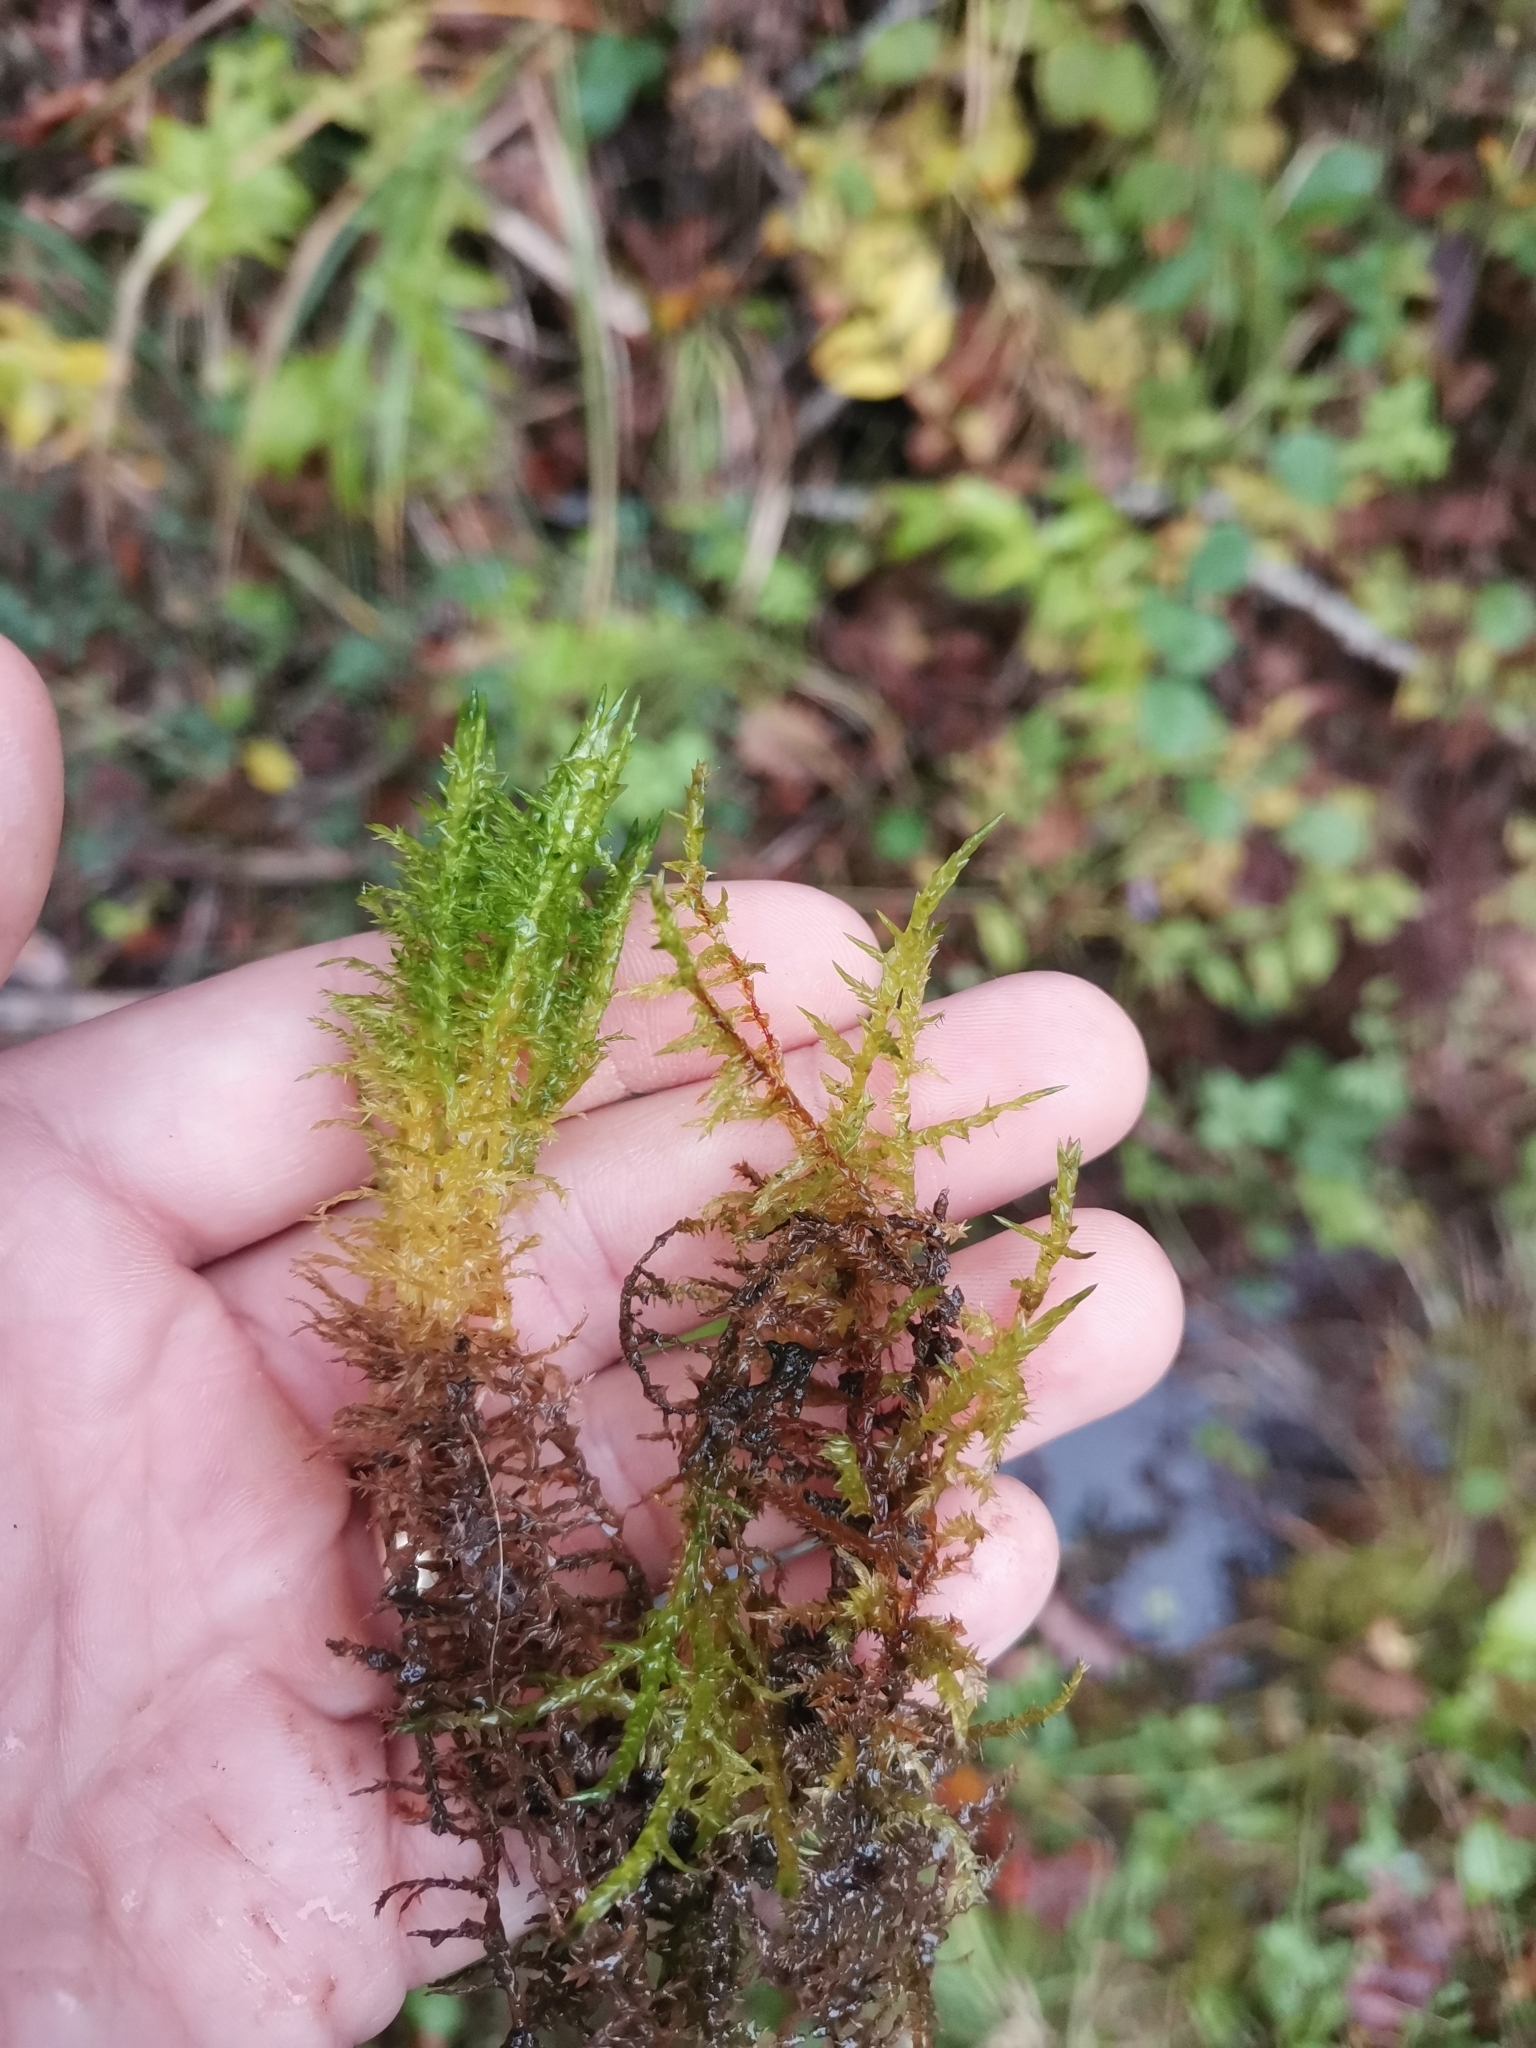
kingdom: Plantae
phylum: Bryophyta
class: Bryopsida
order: Hypnales
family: Pylaisiaceae
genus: Calliergonella
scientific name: Calliergonella cuspidata
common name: Common large wetland moss
